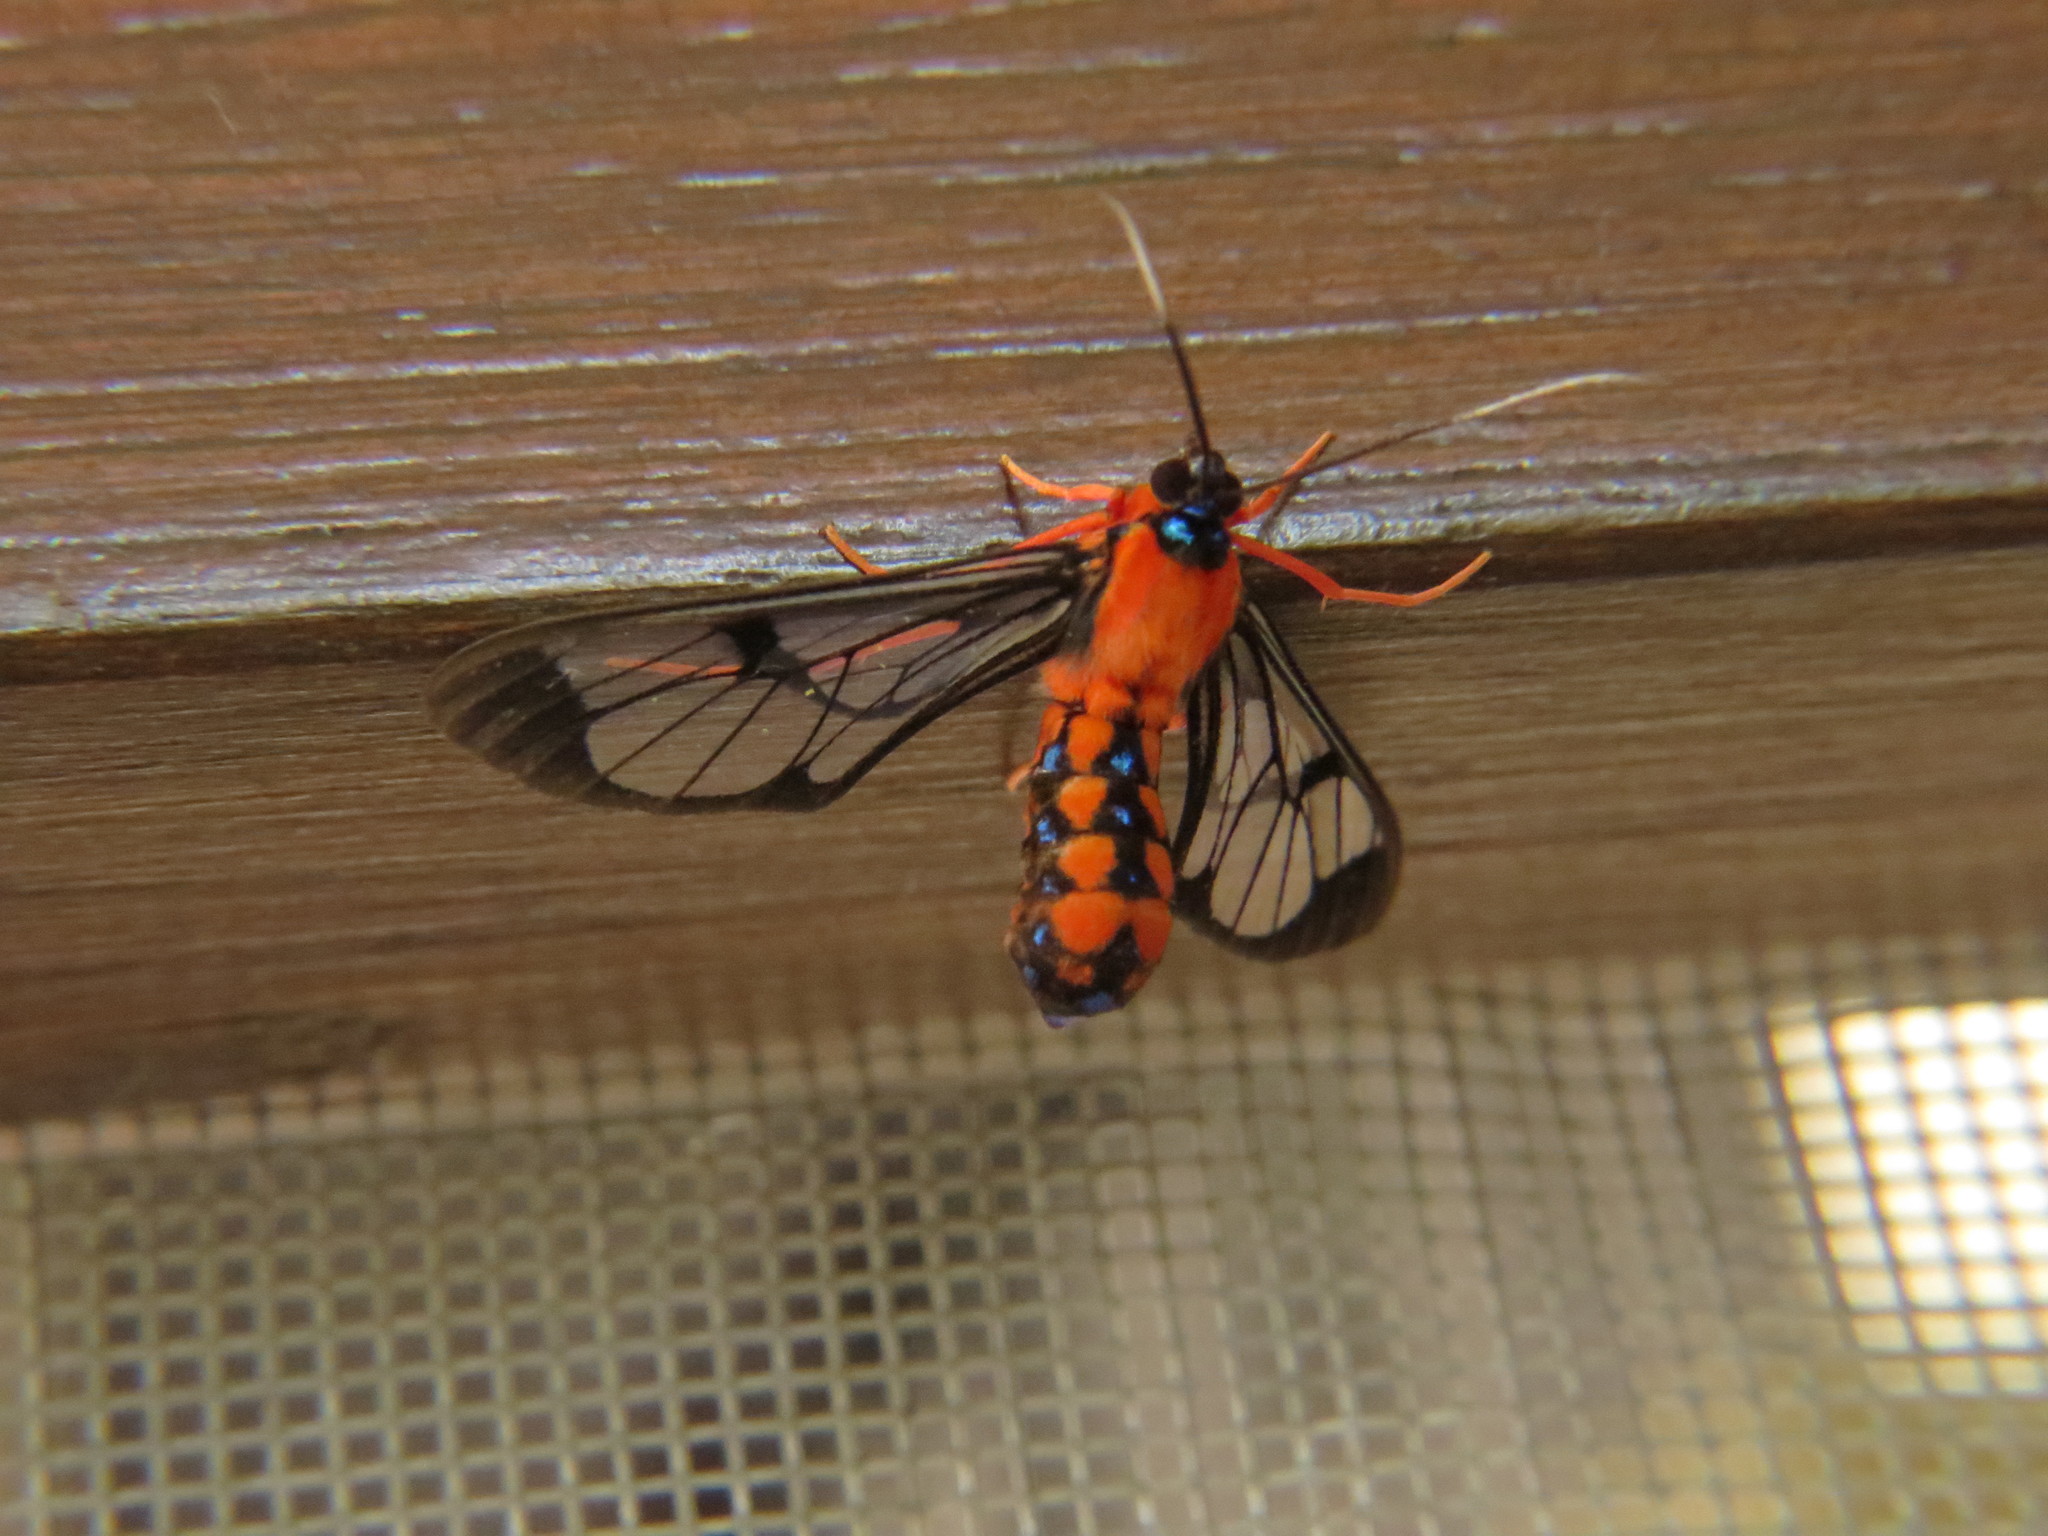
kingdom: Animalia
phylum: Arthropoda
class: Insecta
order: Lepidoptera
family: Erebidae
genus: Cosmosoma
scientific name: Cosmosoma sectinota
